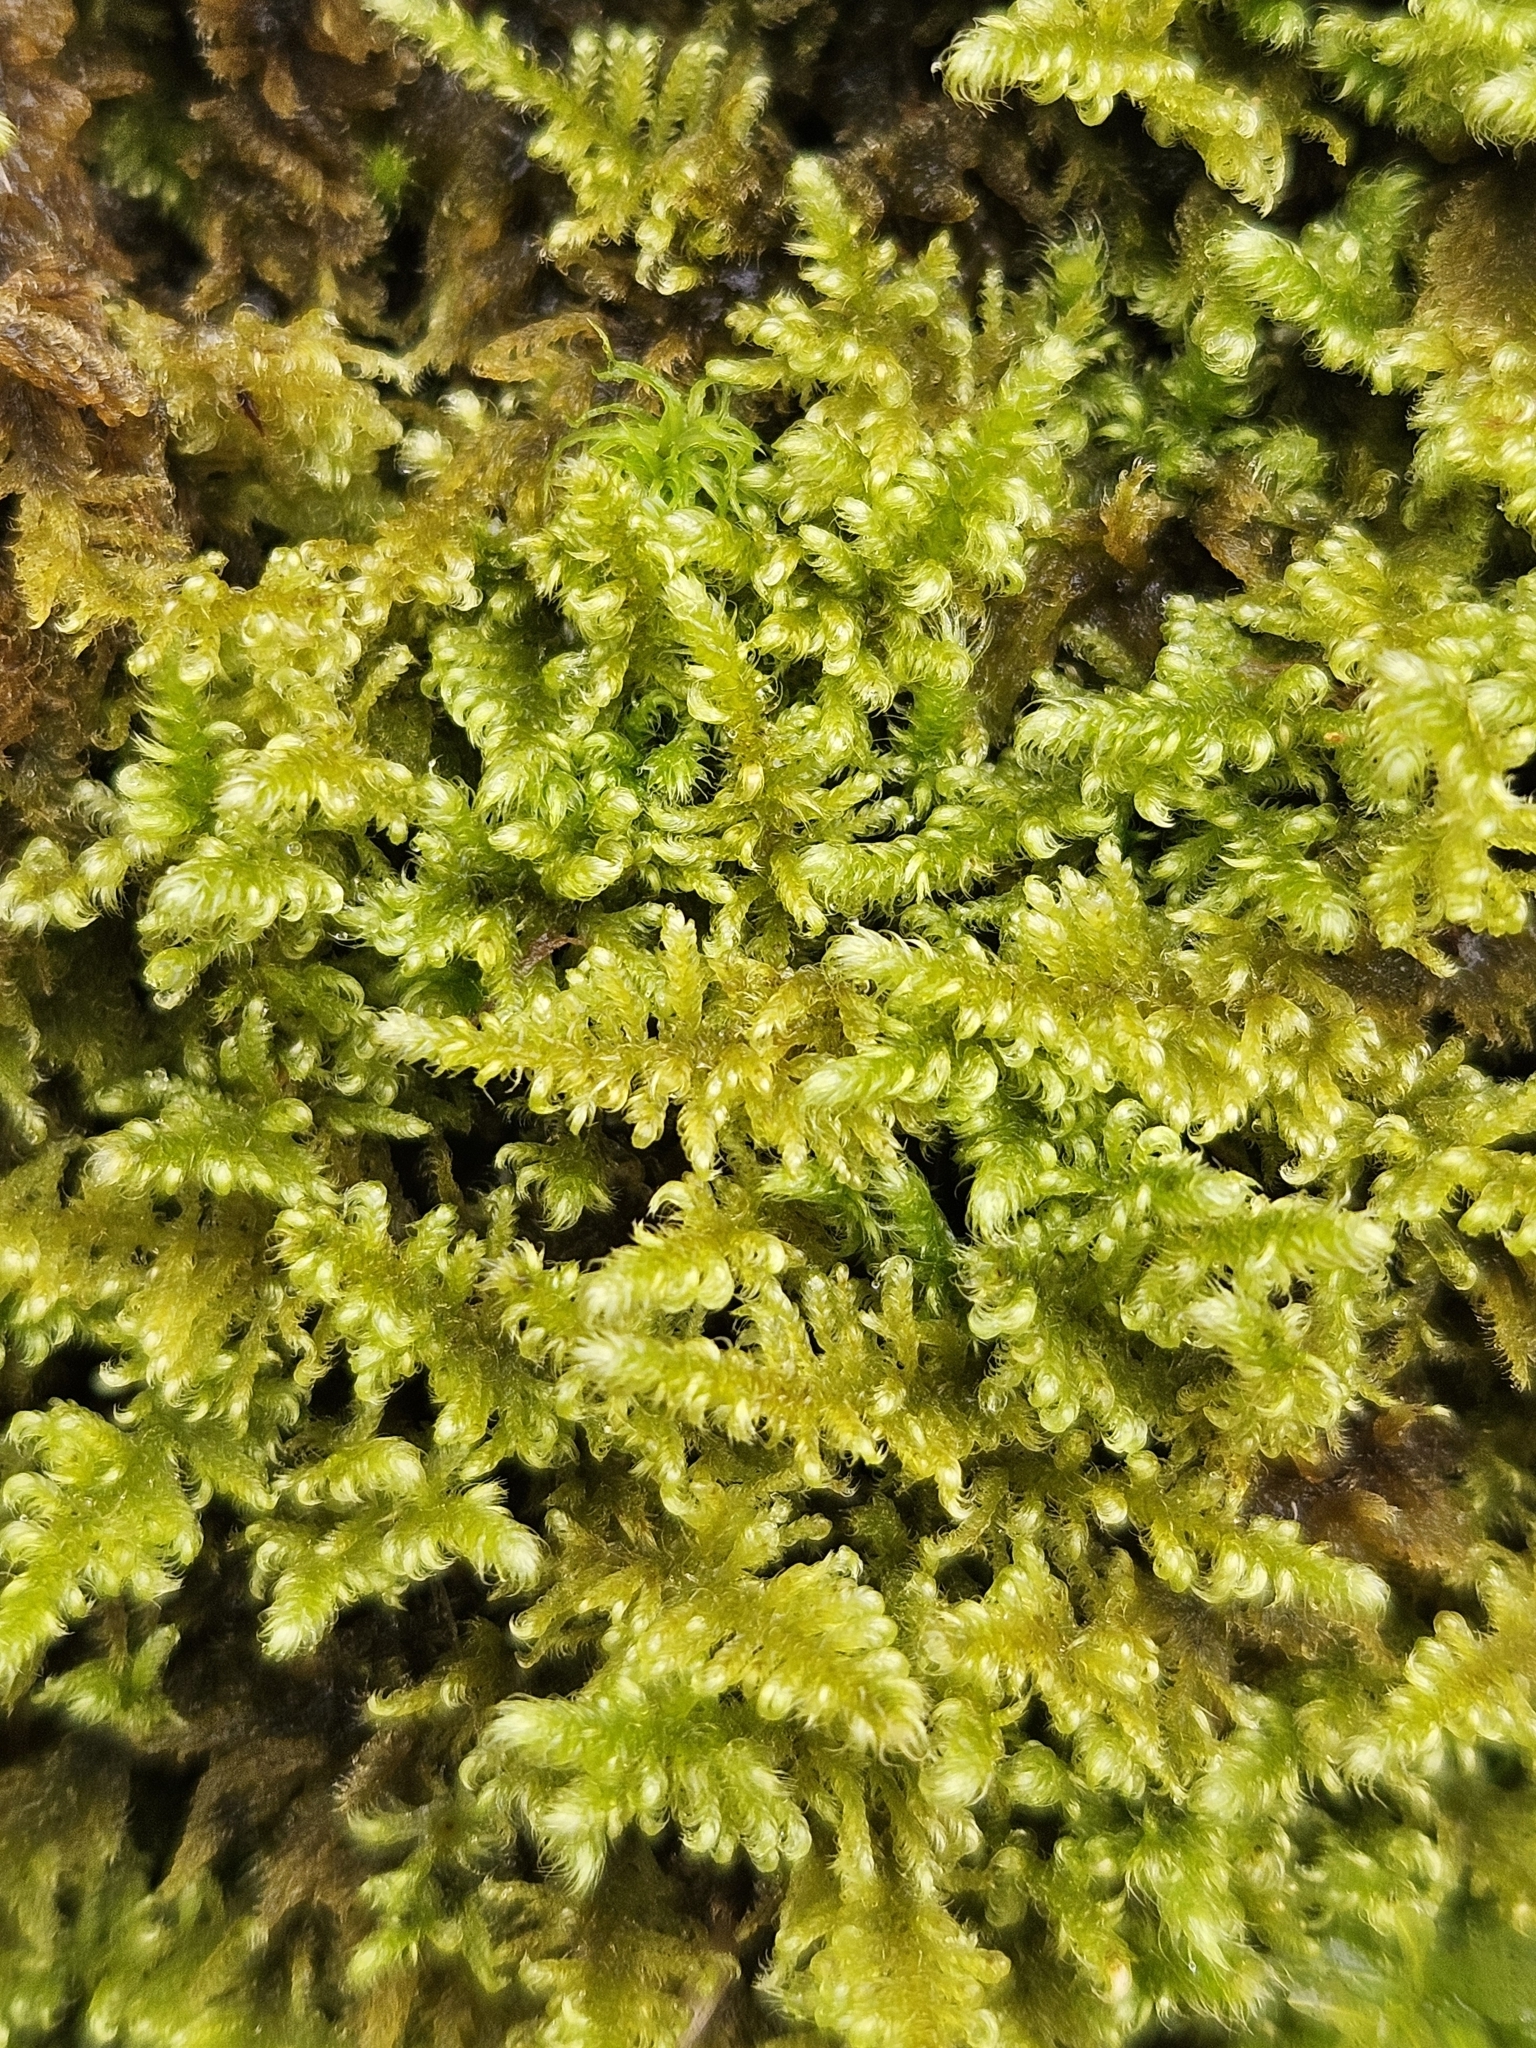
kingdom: Plantae
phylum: Bryophyta
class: Bryopsida
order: Hypnales
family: Myuriaceae
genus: Ctenidium
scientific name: Ctenidium molluscum
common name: Chalk comb-moss
